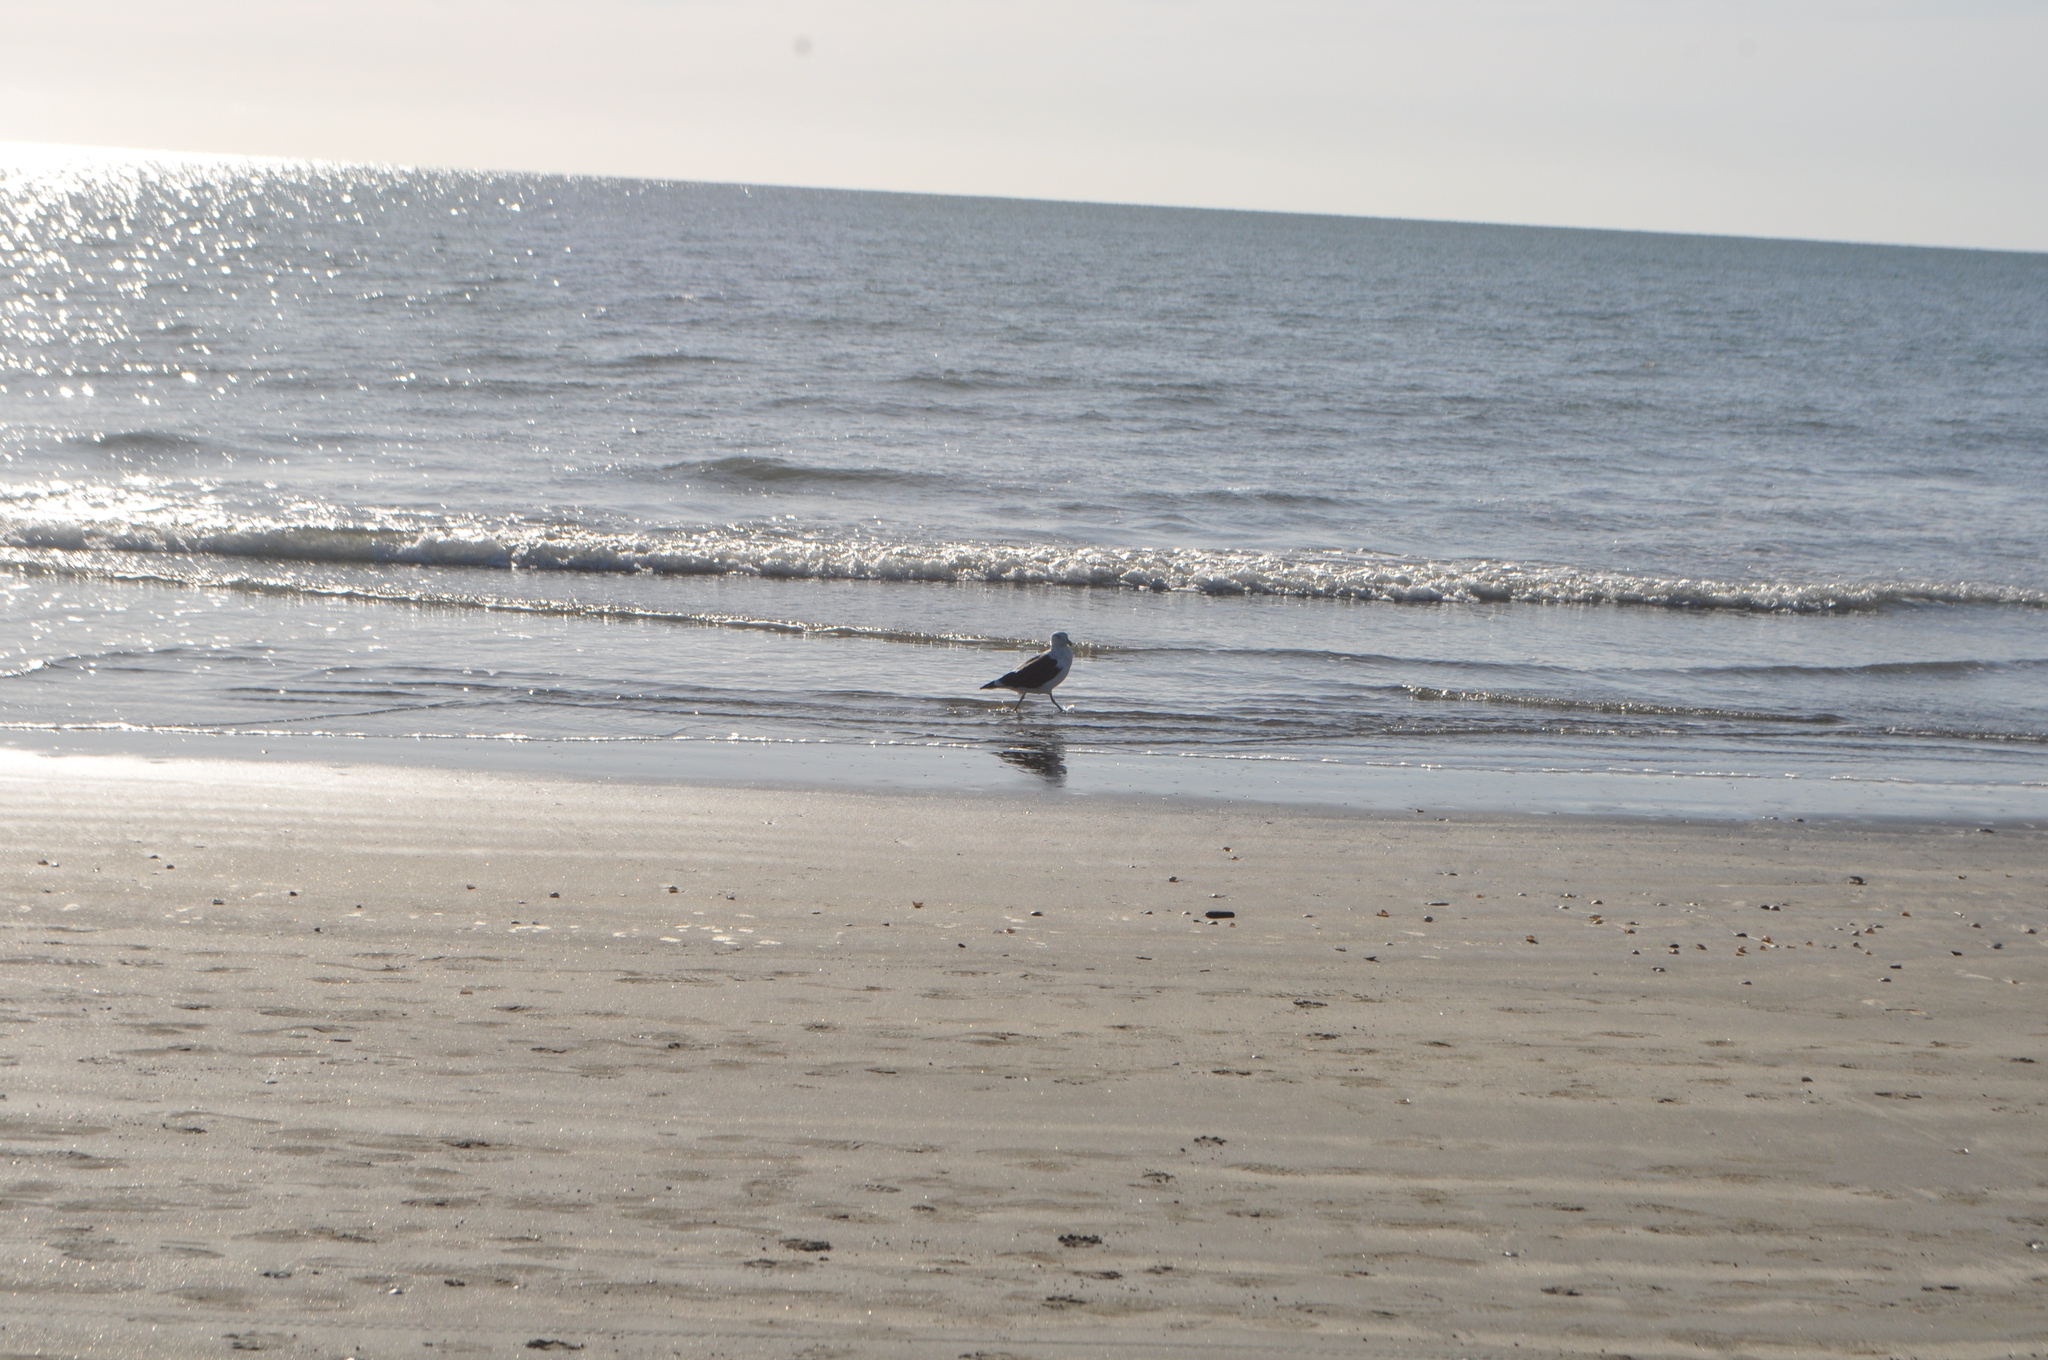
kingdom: Animalia
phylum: Chordata
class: Aves
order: Charadriiformes
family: Laridae
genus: Larus
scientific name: Larus dominicanus
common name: Kelp gull
